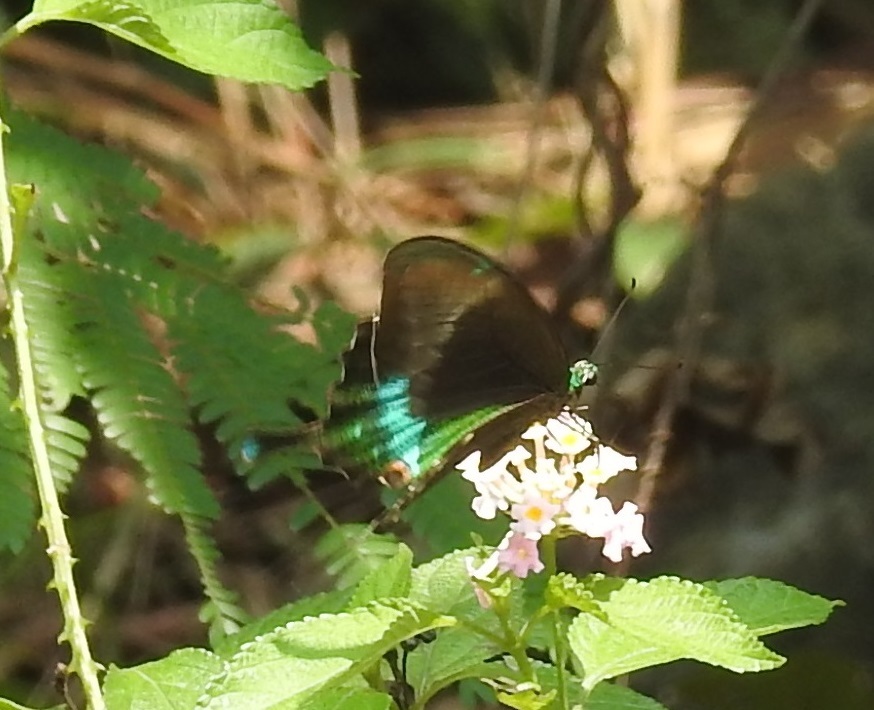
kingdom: Animalia
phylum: Arthropoda
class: Insecta
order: Lepidoptera
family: Papilionidae
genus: Papilio
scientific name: Papilio crino
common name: Common banded peacock
